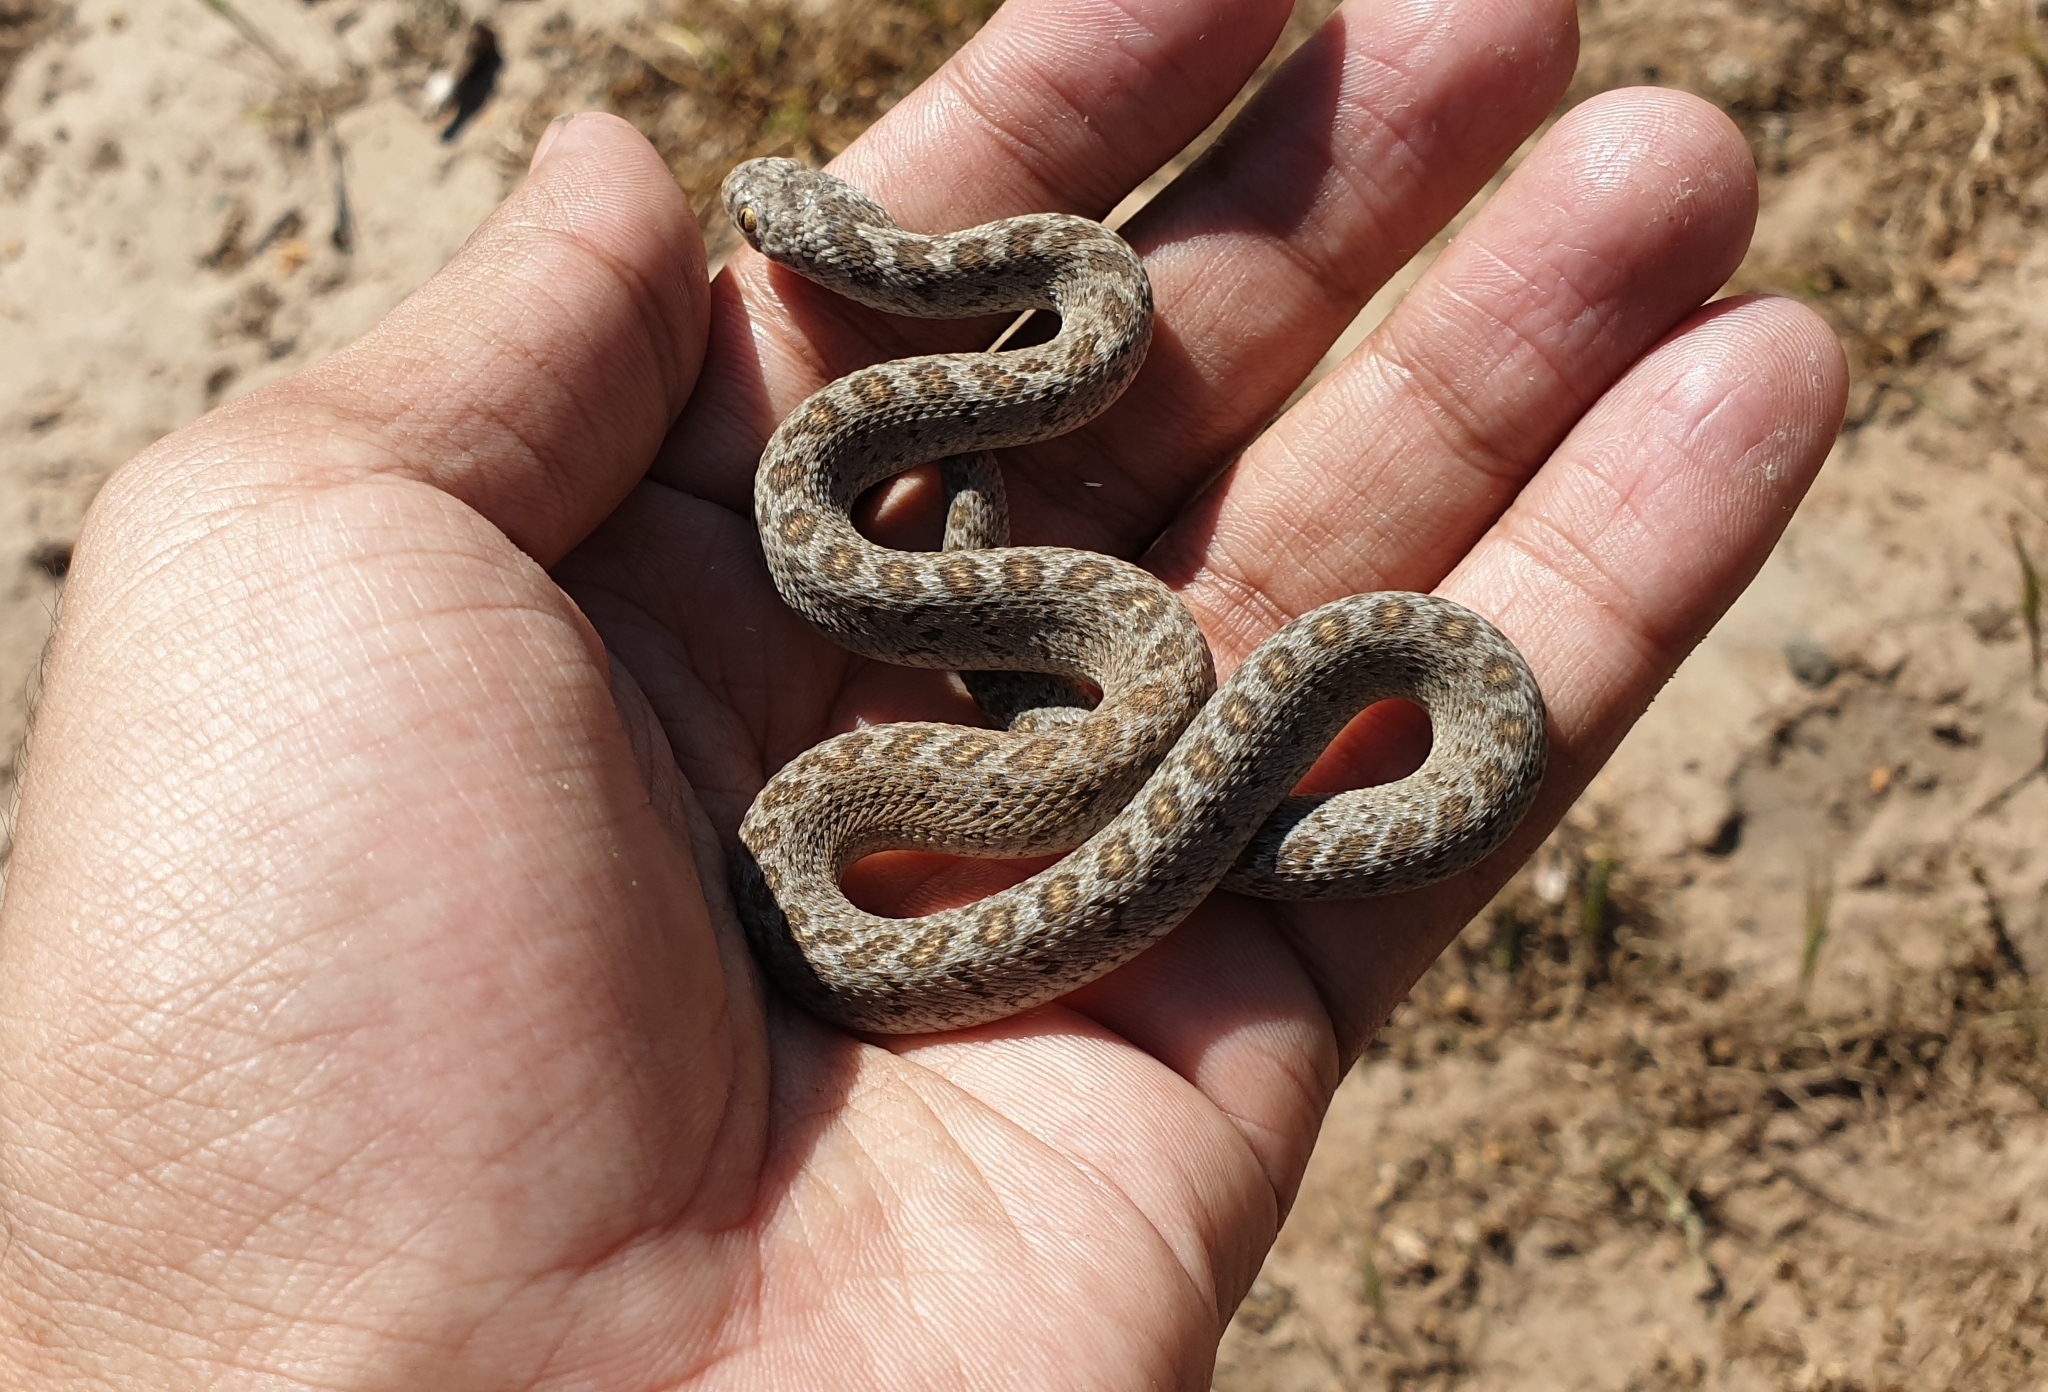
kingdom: Animalia
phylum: Chordata
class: Squamata
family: Colubridae
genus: Dasypeltis
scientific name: Dasypeltis scabra
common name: Common egg eater
